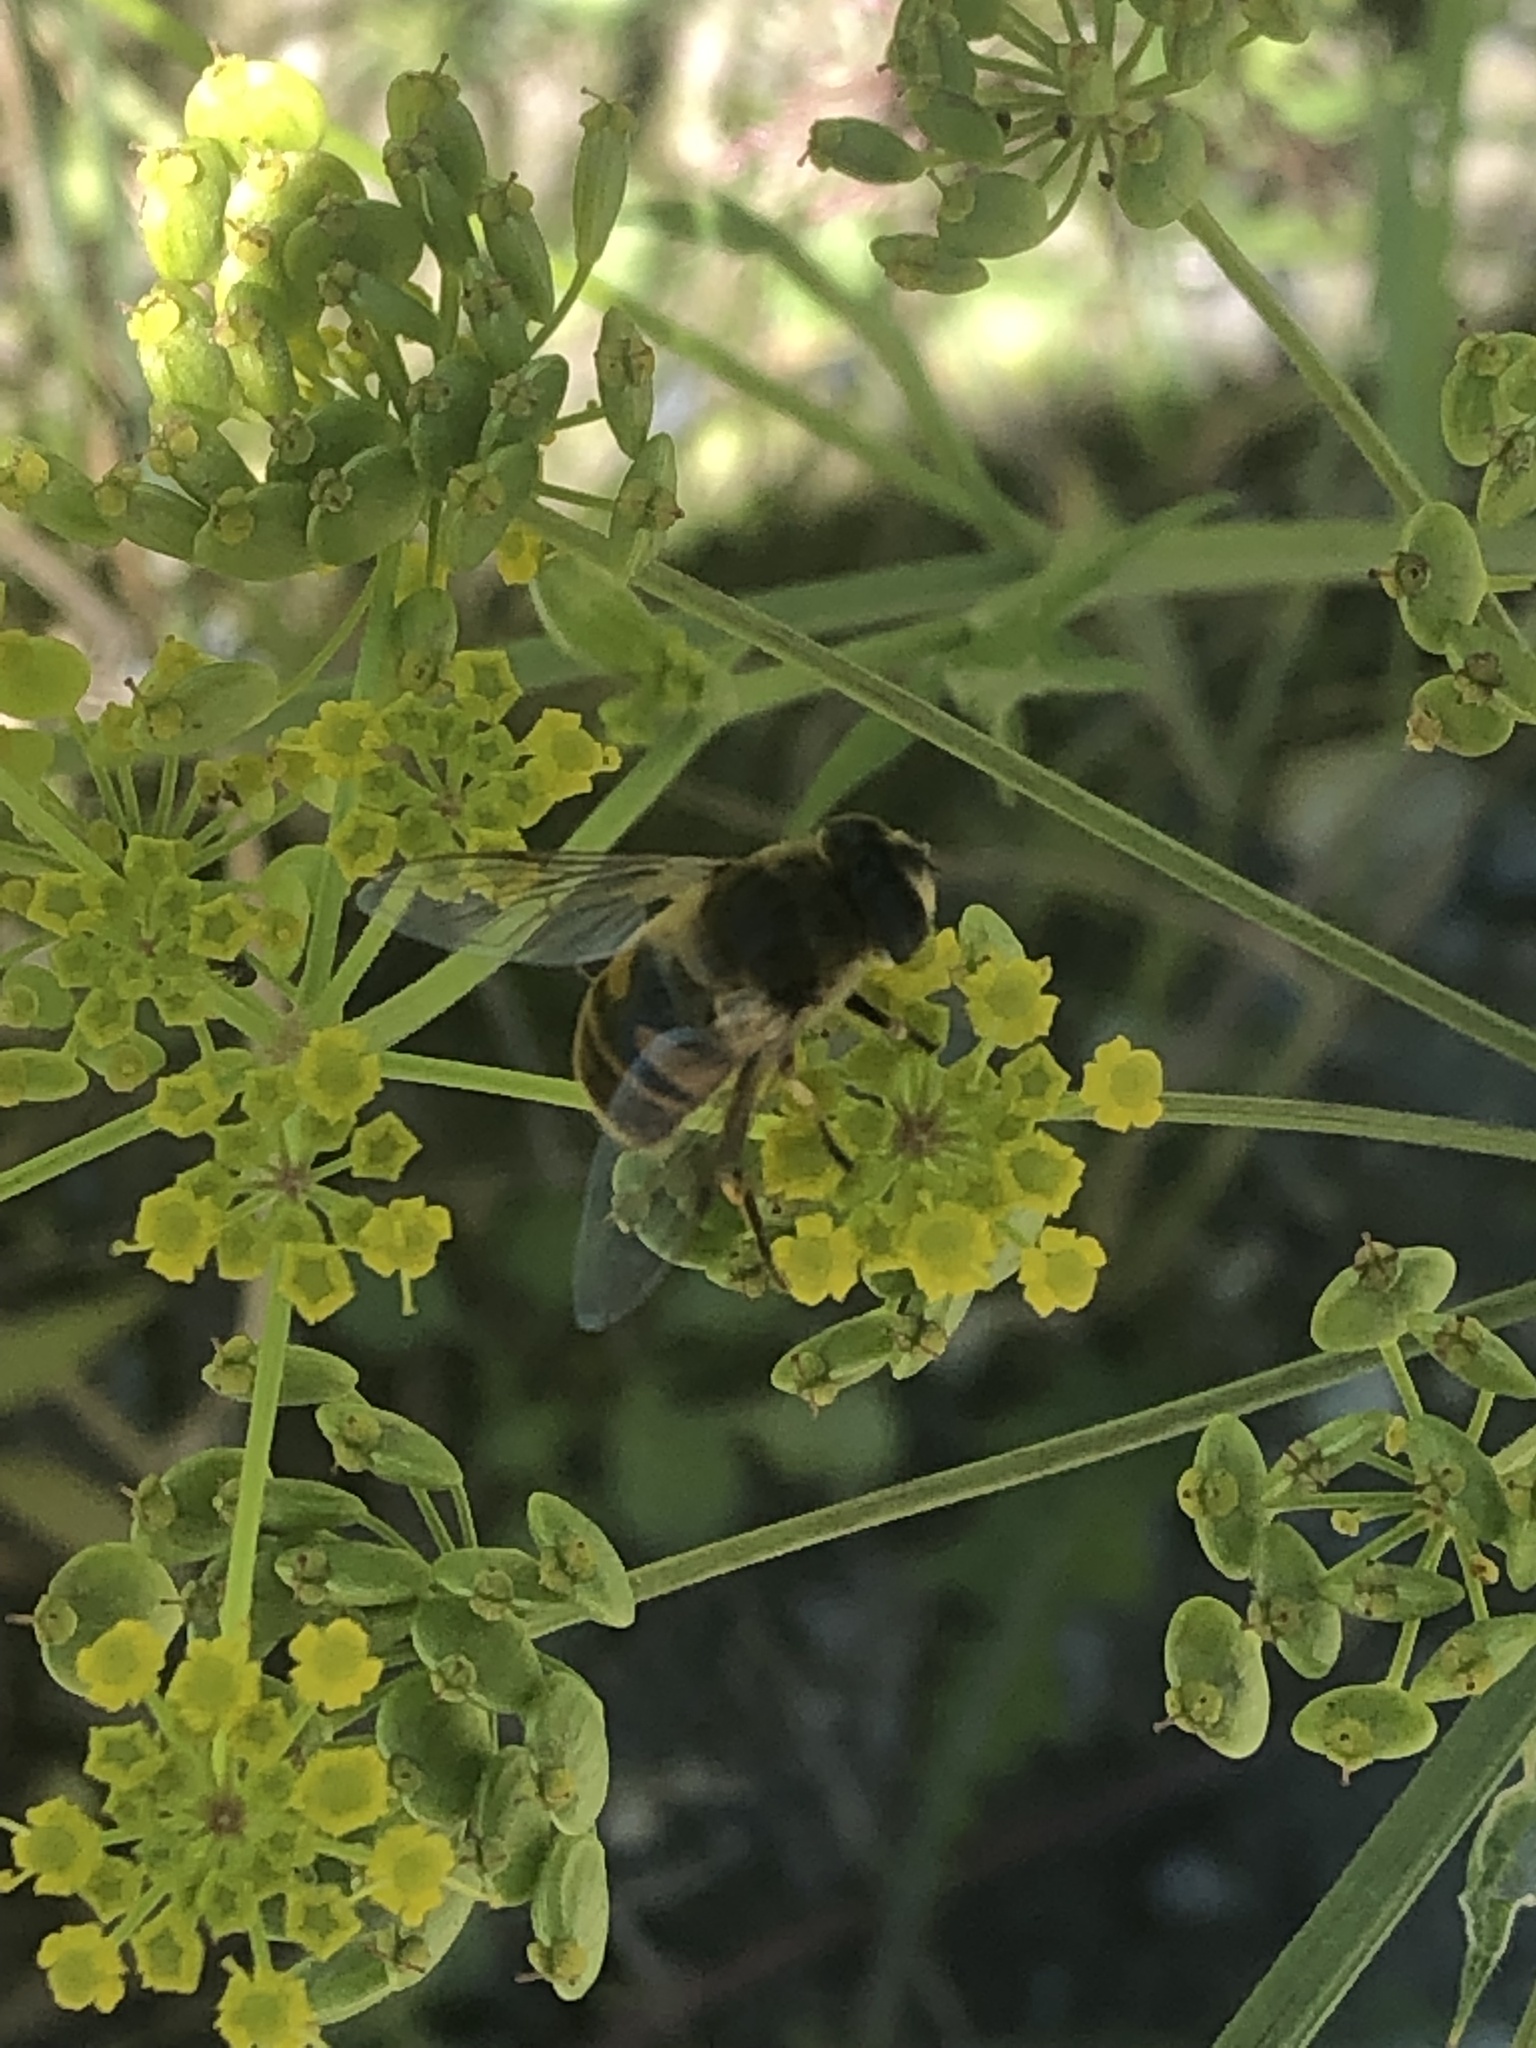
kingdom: Animalia
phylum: Arthropoda
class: Insecta
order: Diptera
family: Syrphidae
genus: Eristalis
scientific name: Eristalis tenax
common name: Drone fly
